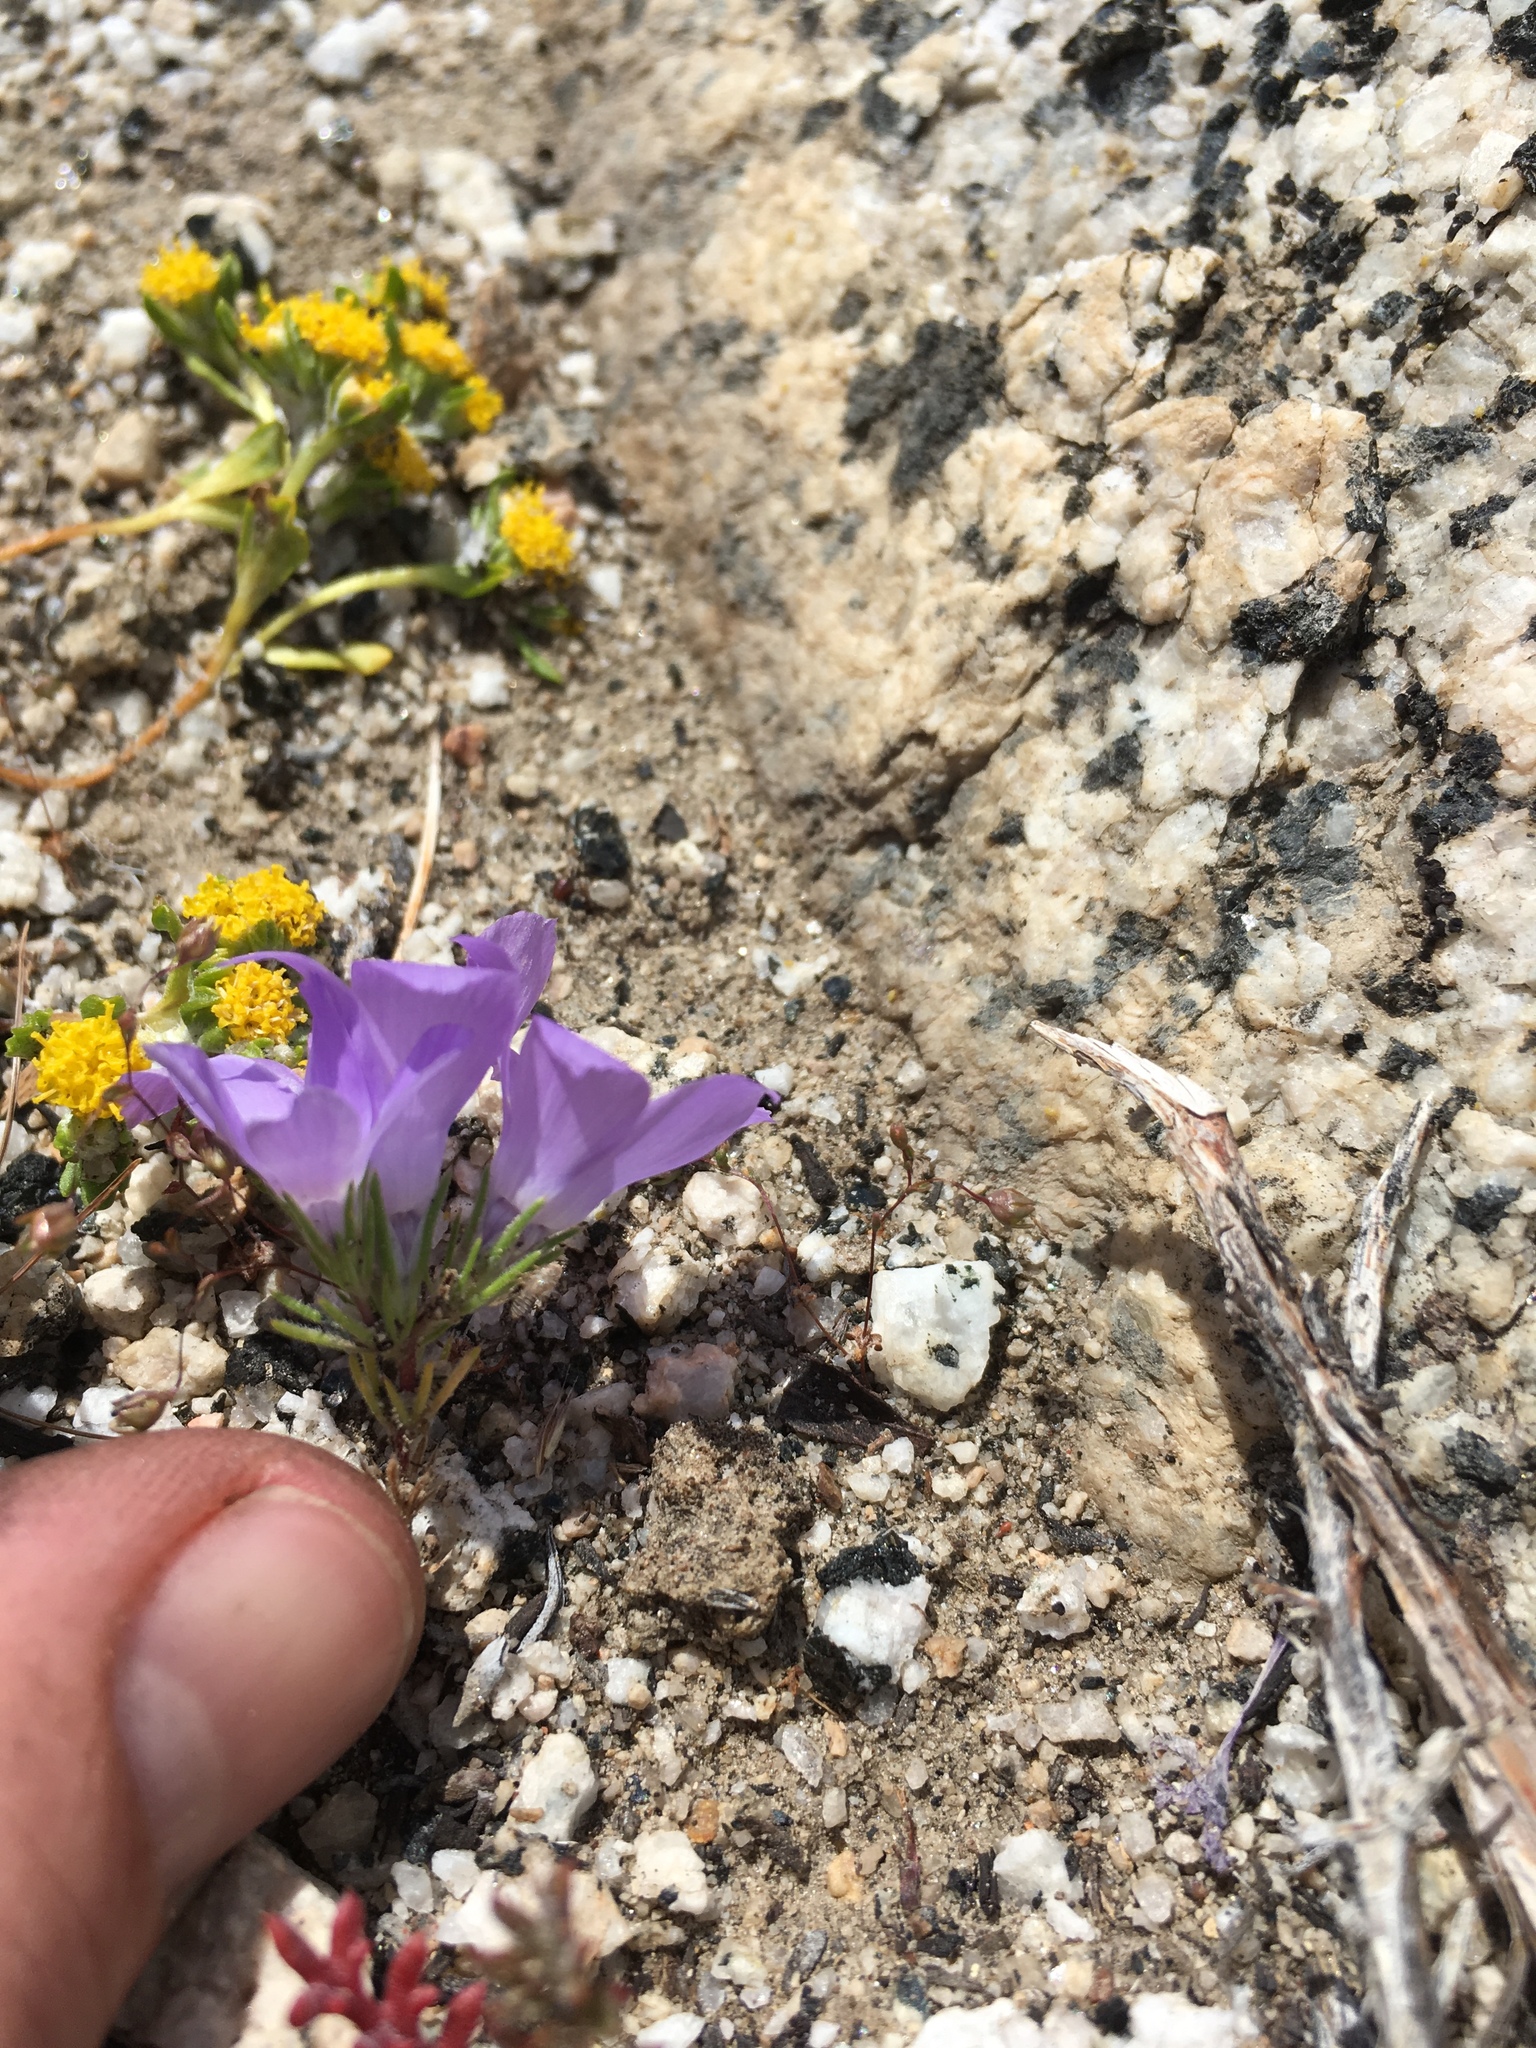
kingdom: Plantae
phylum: Tracheophyta
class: Magnoliopsida
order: Ericales
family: Polemoniaceae
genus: Linanthus
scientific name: Linanthus parryae
